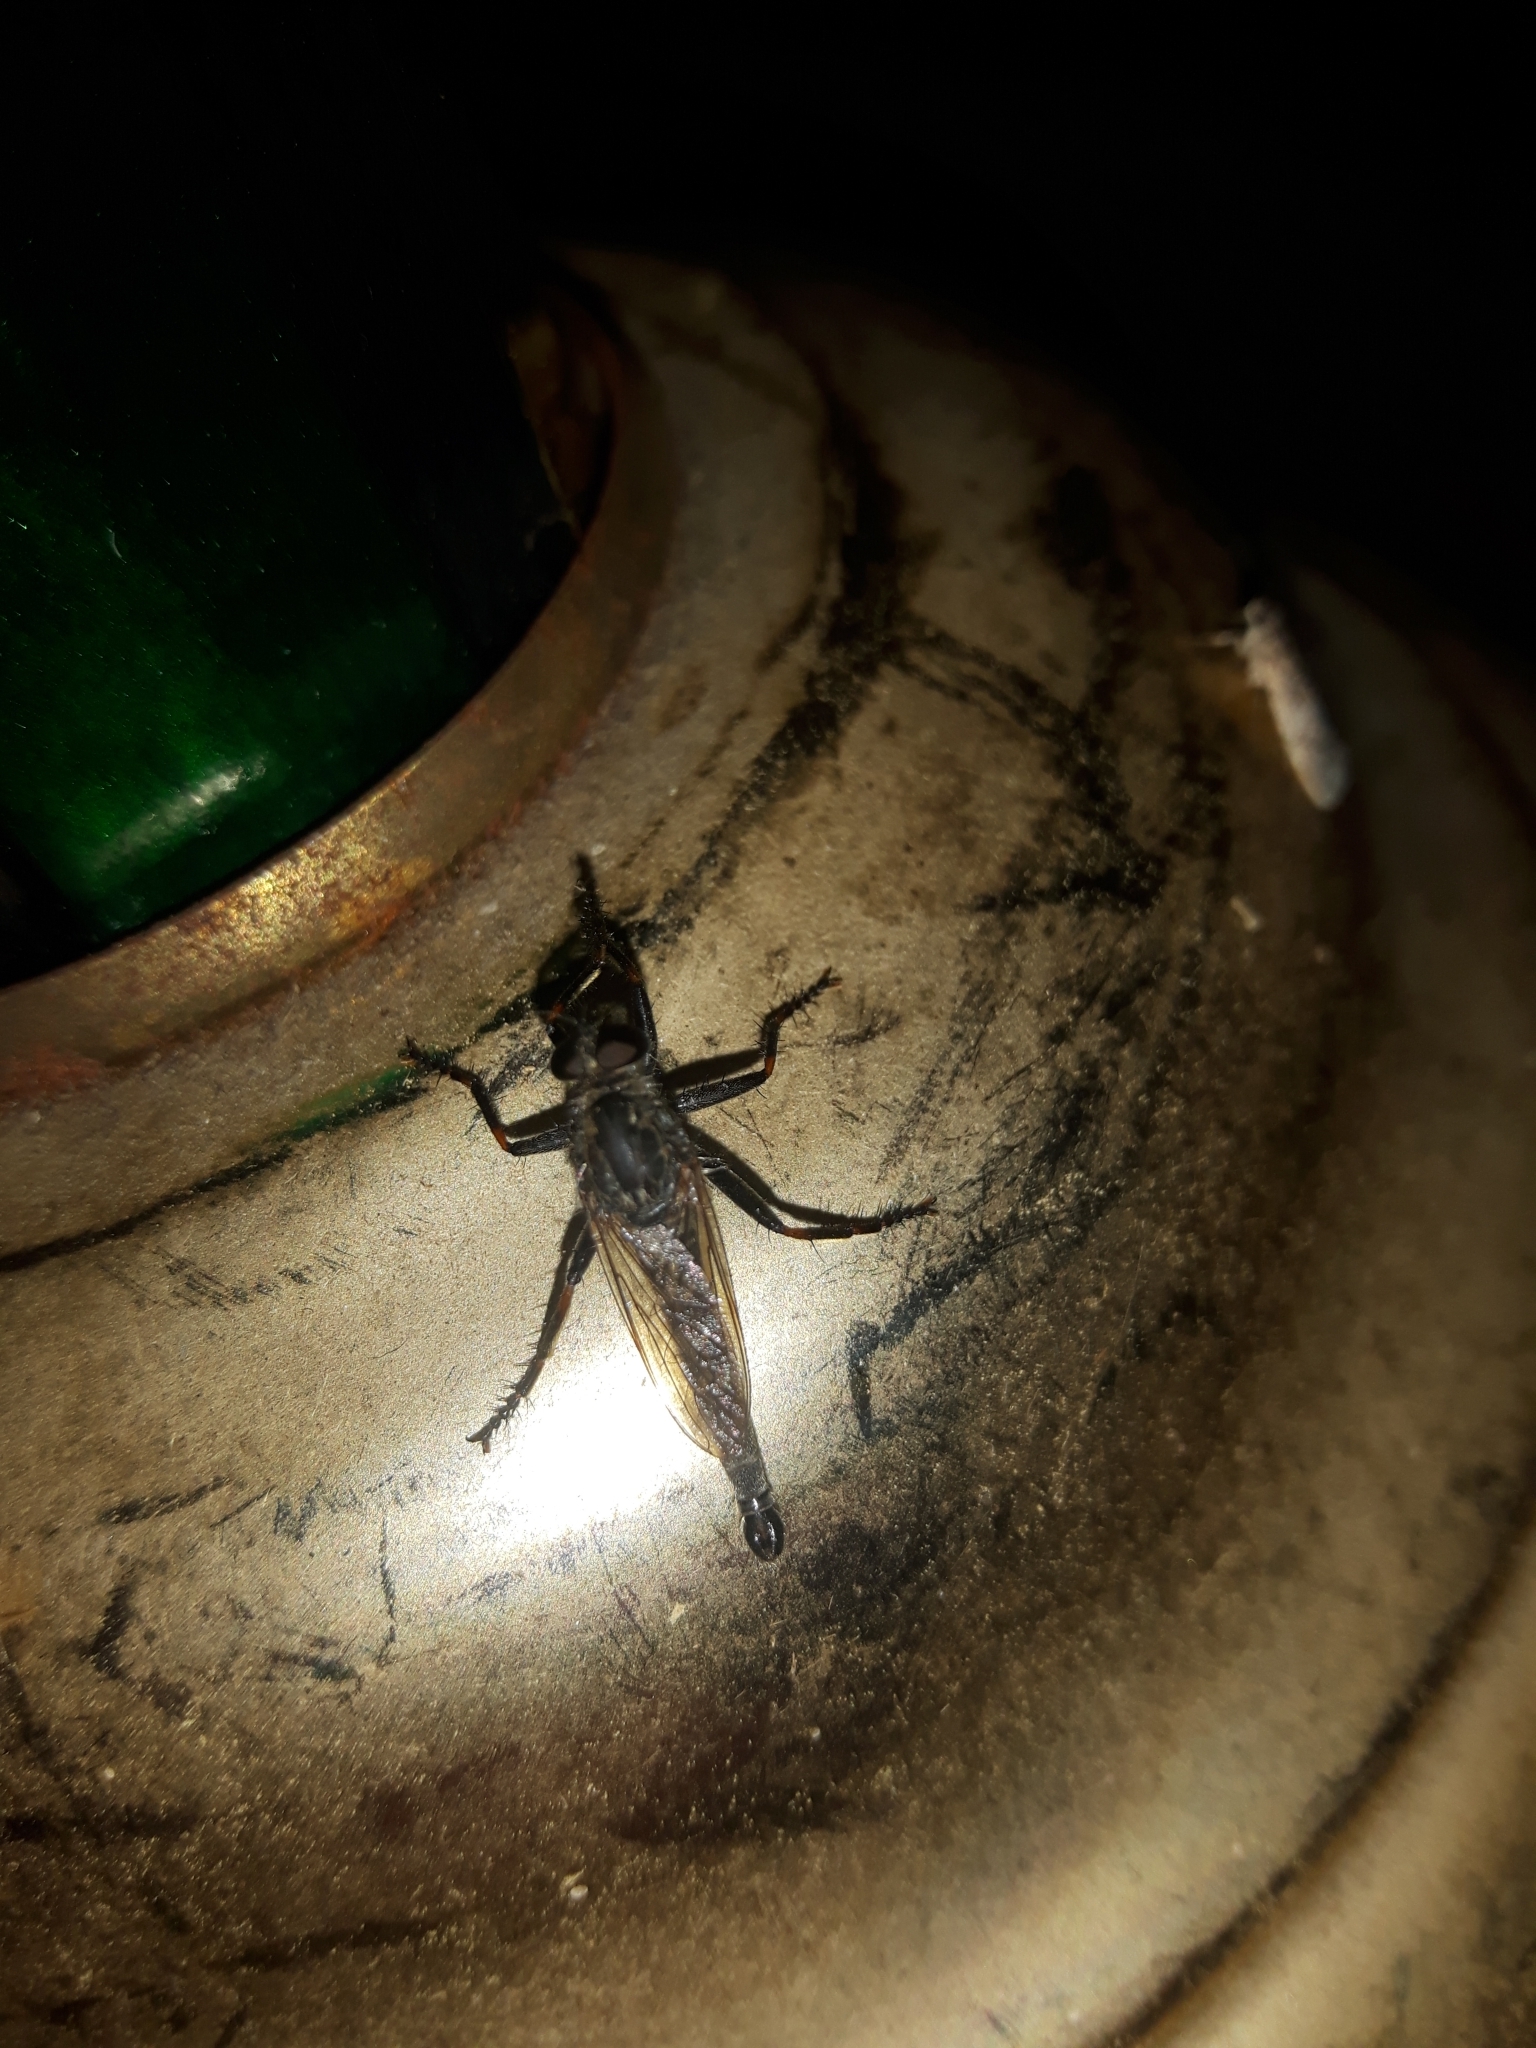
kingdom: Animalia
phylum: Arthropoda
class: Insecta
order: Diptera
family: Asilidae
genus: Machimus
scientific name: Machimus notatus
